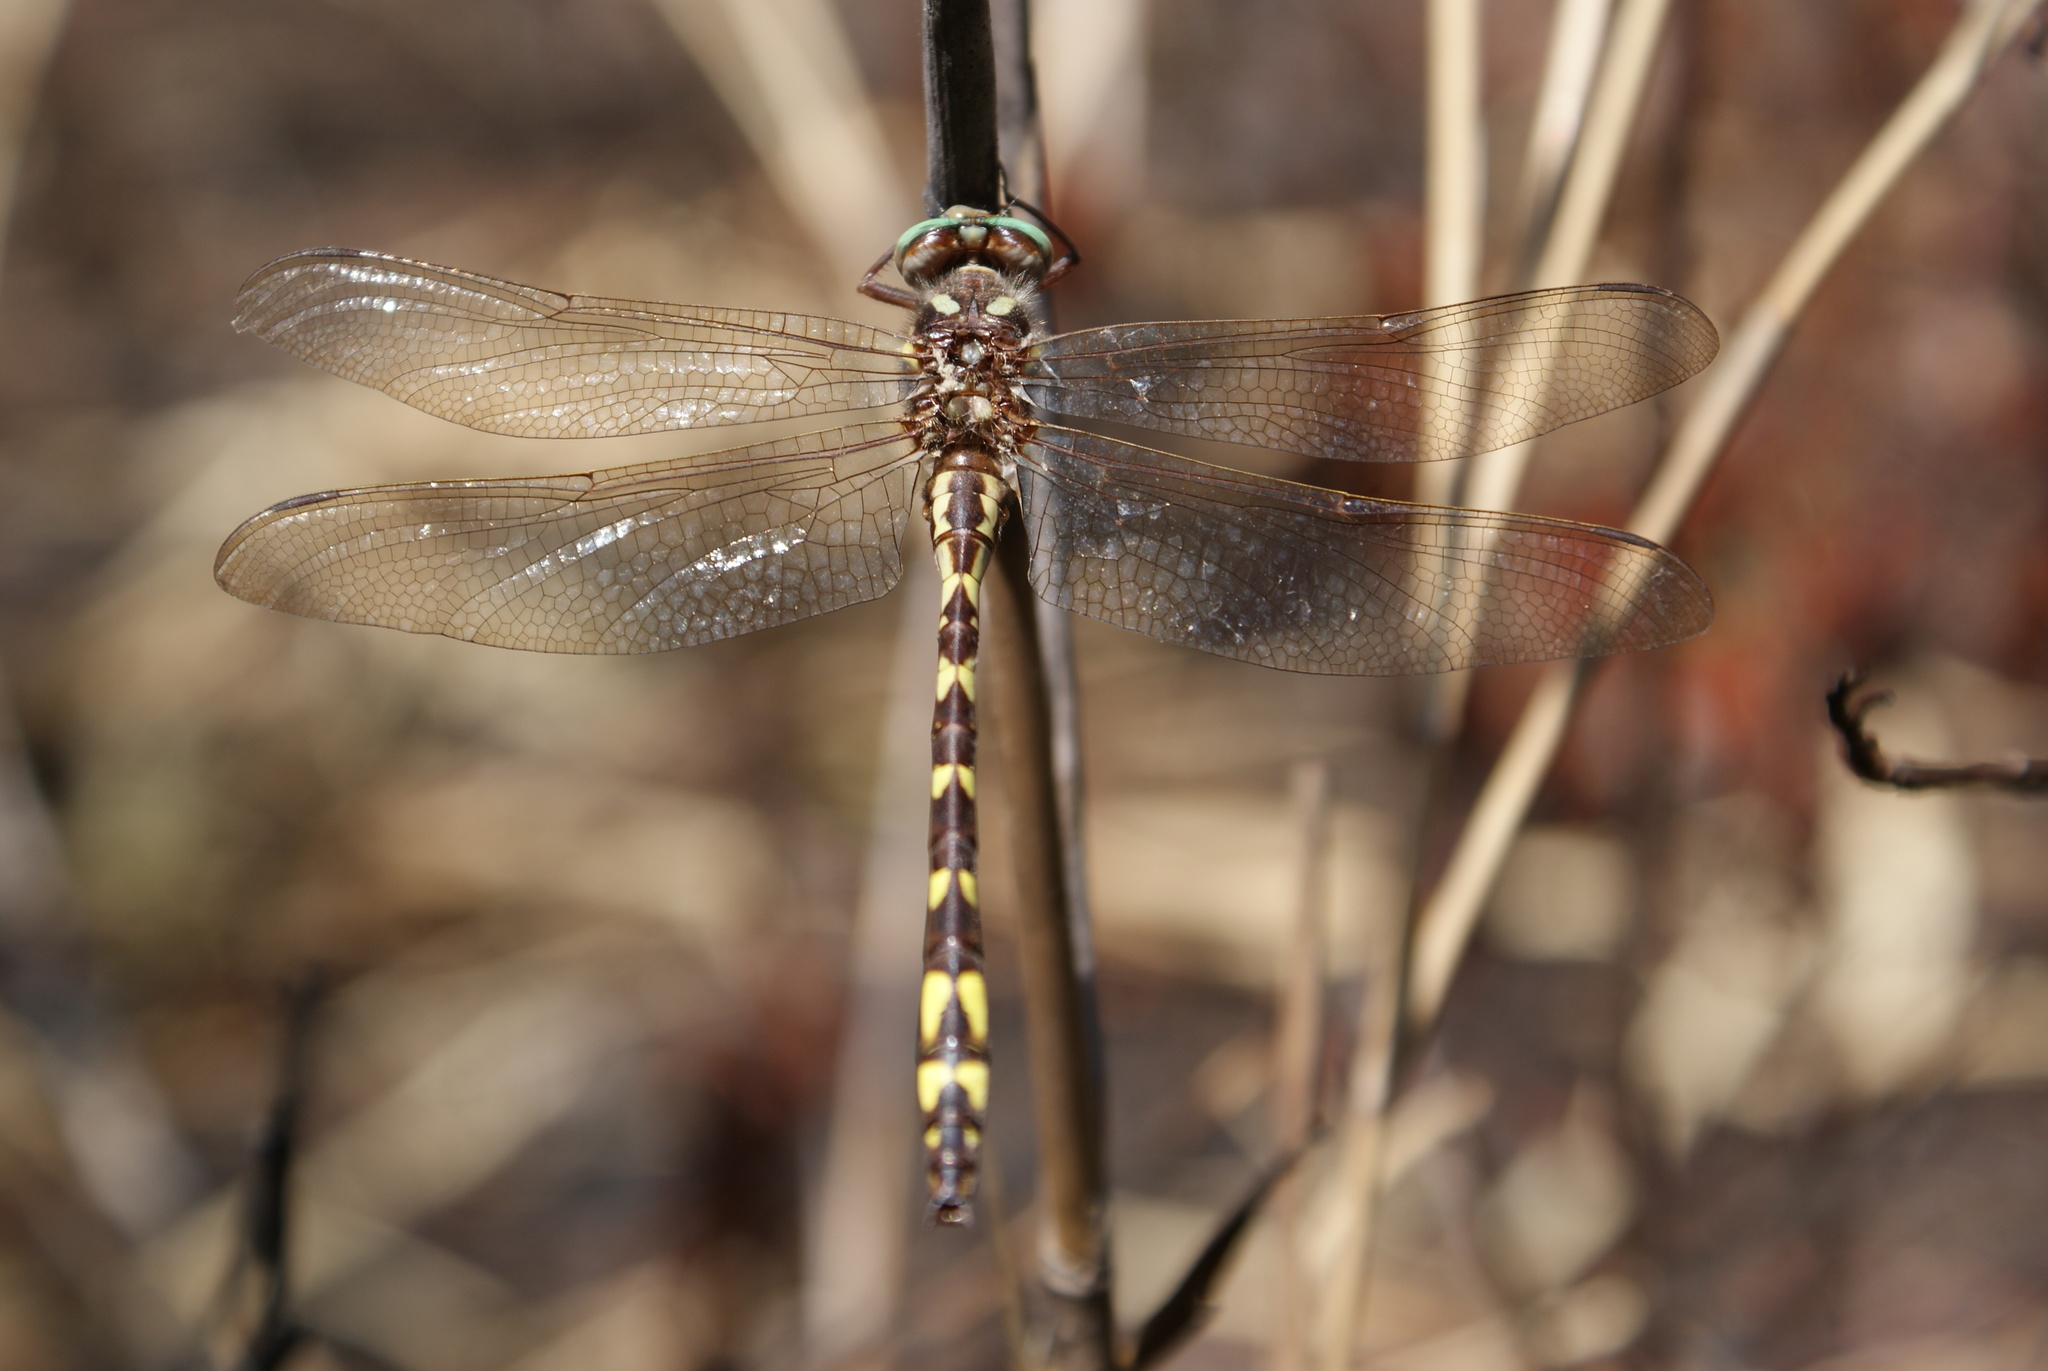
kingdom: Animalia
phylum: Arthropoda
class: Insecta
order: Odonata
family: Cordulegastridae
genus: Cordulegaster
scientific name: Cordulegaster bilineata
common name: Brown spiketail
